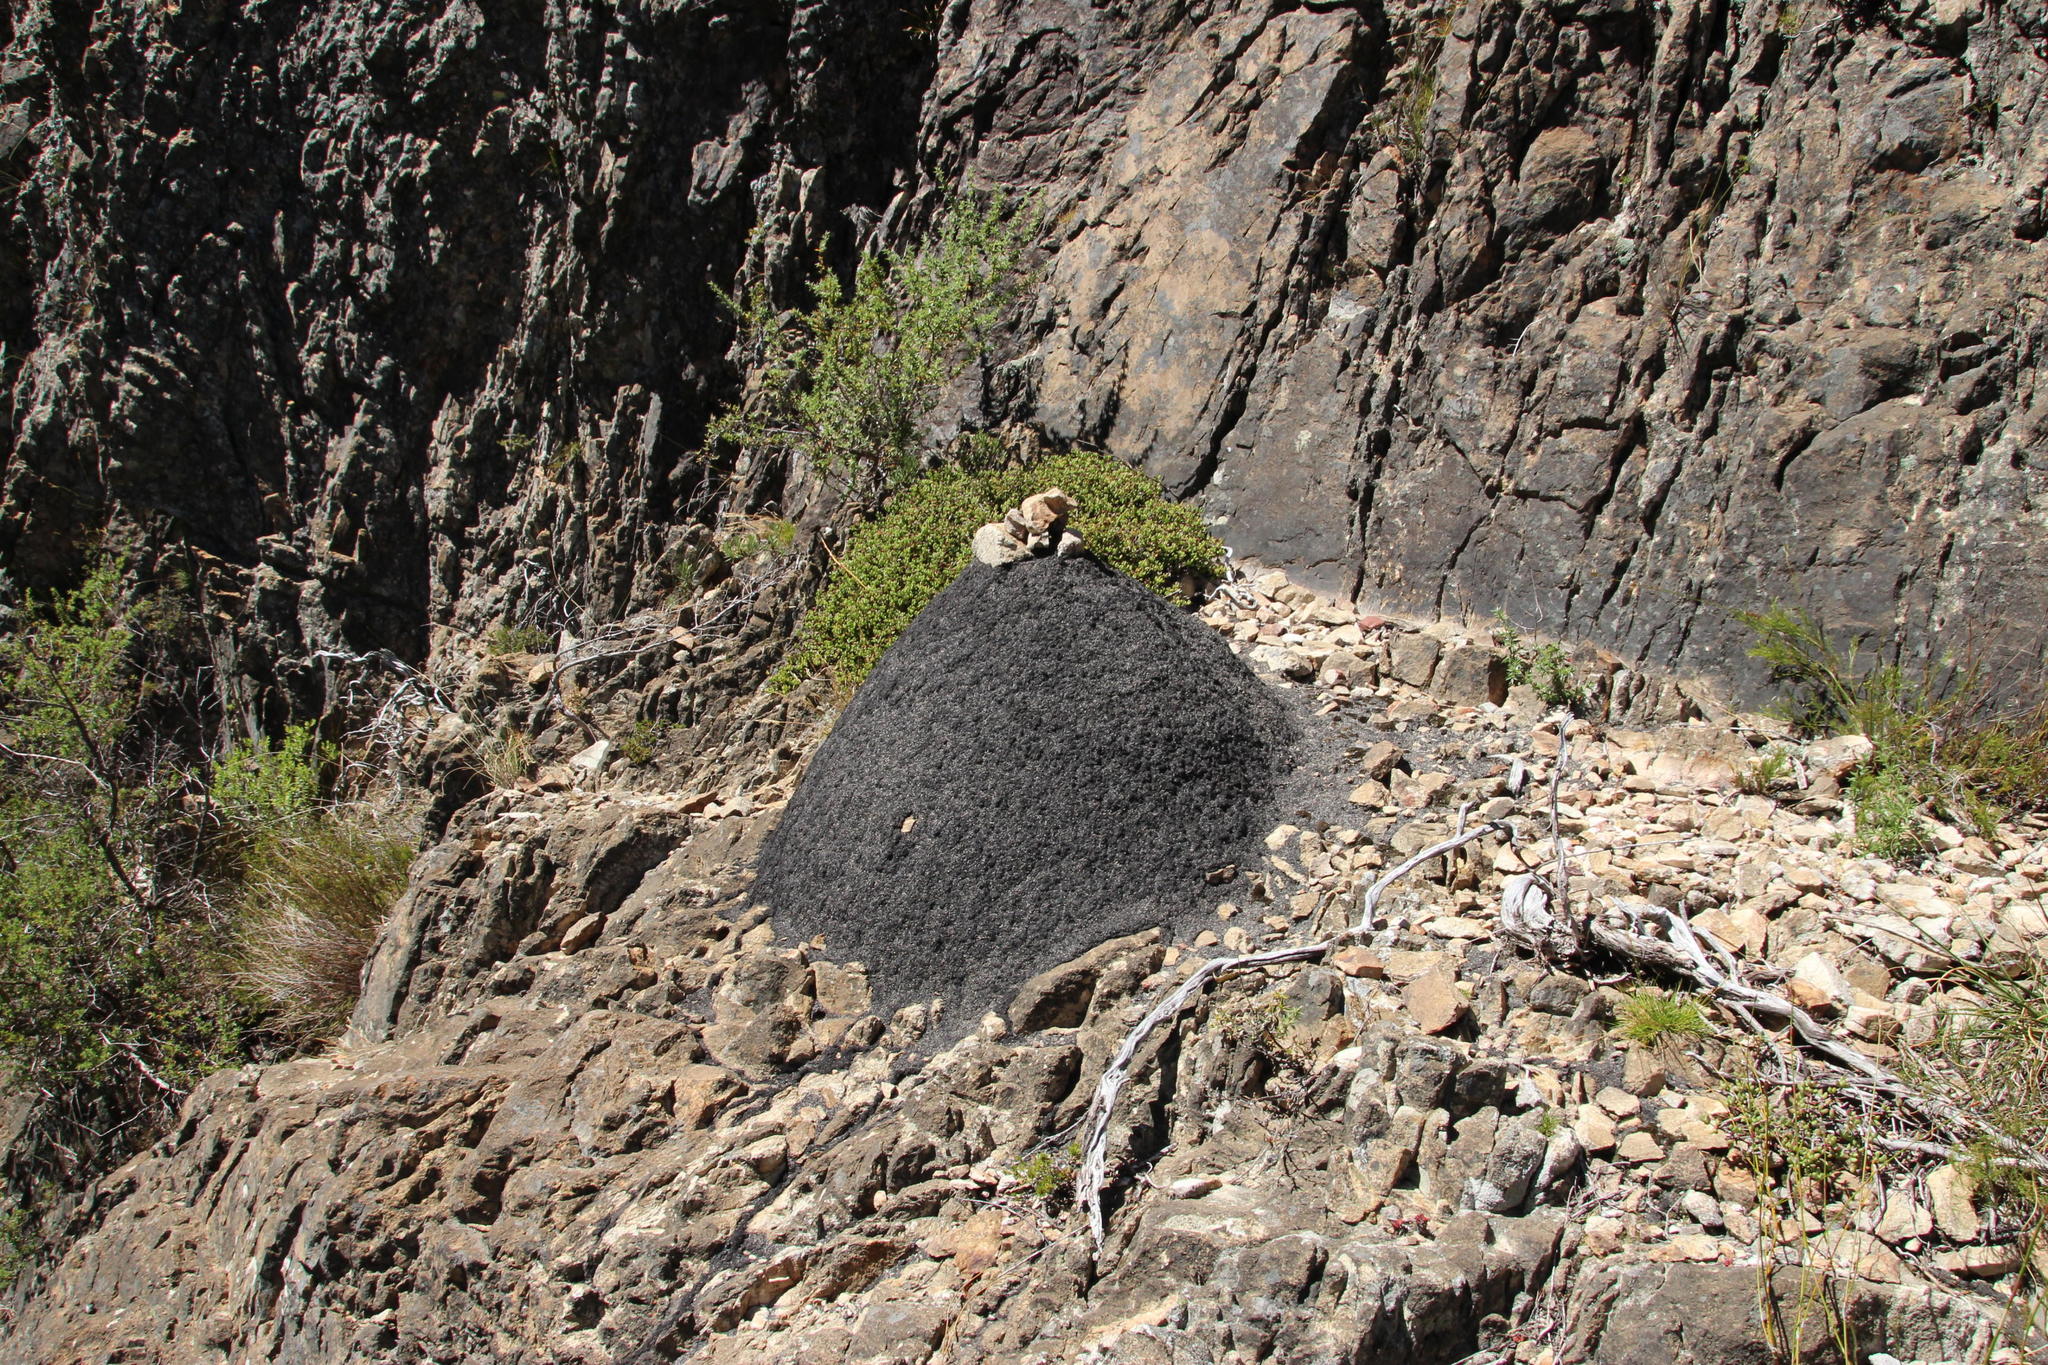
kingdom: Animalia
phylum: Arthropoda
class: Insecta
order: Blattodea
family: Termitidae
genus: Amitermes
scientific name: Amitermes hastatus
